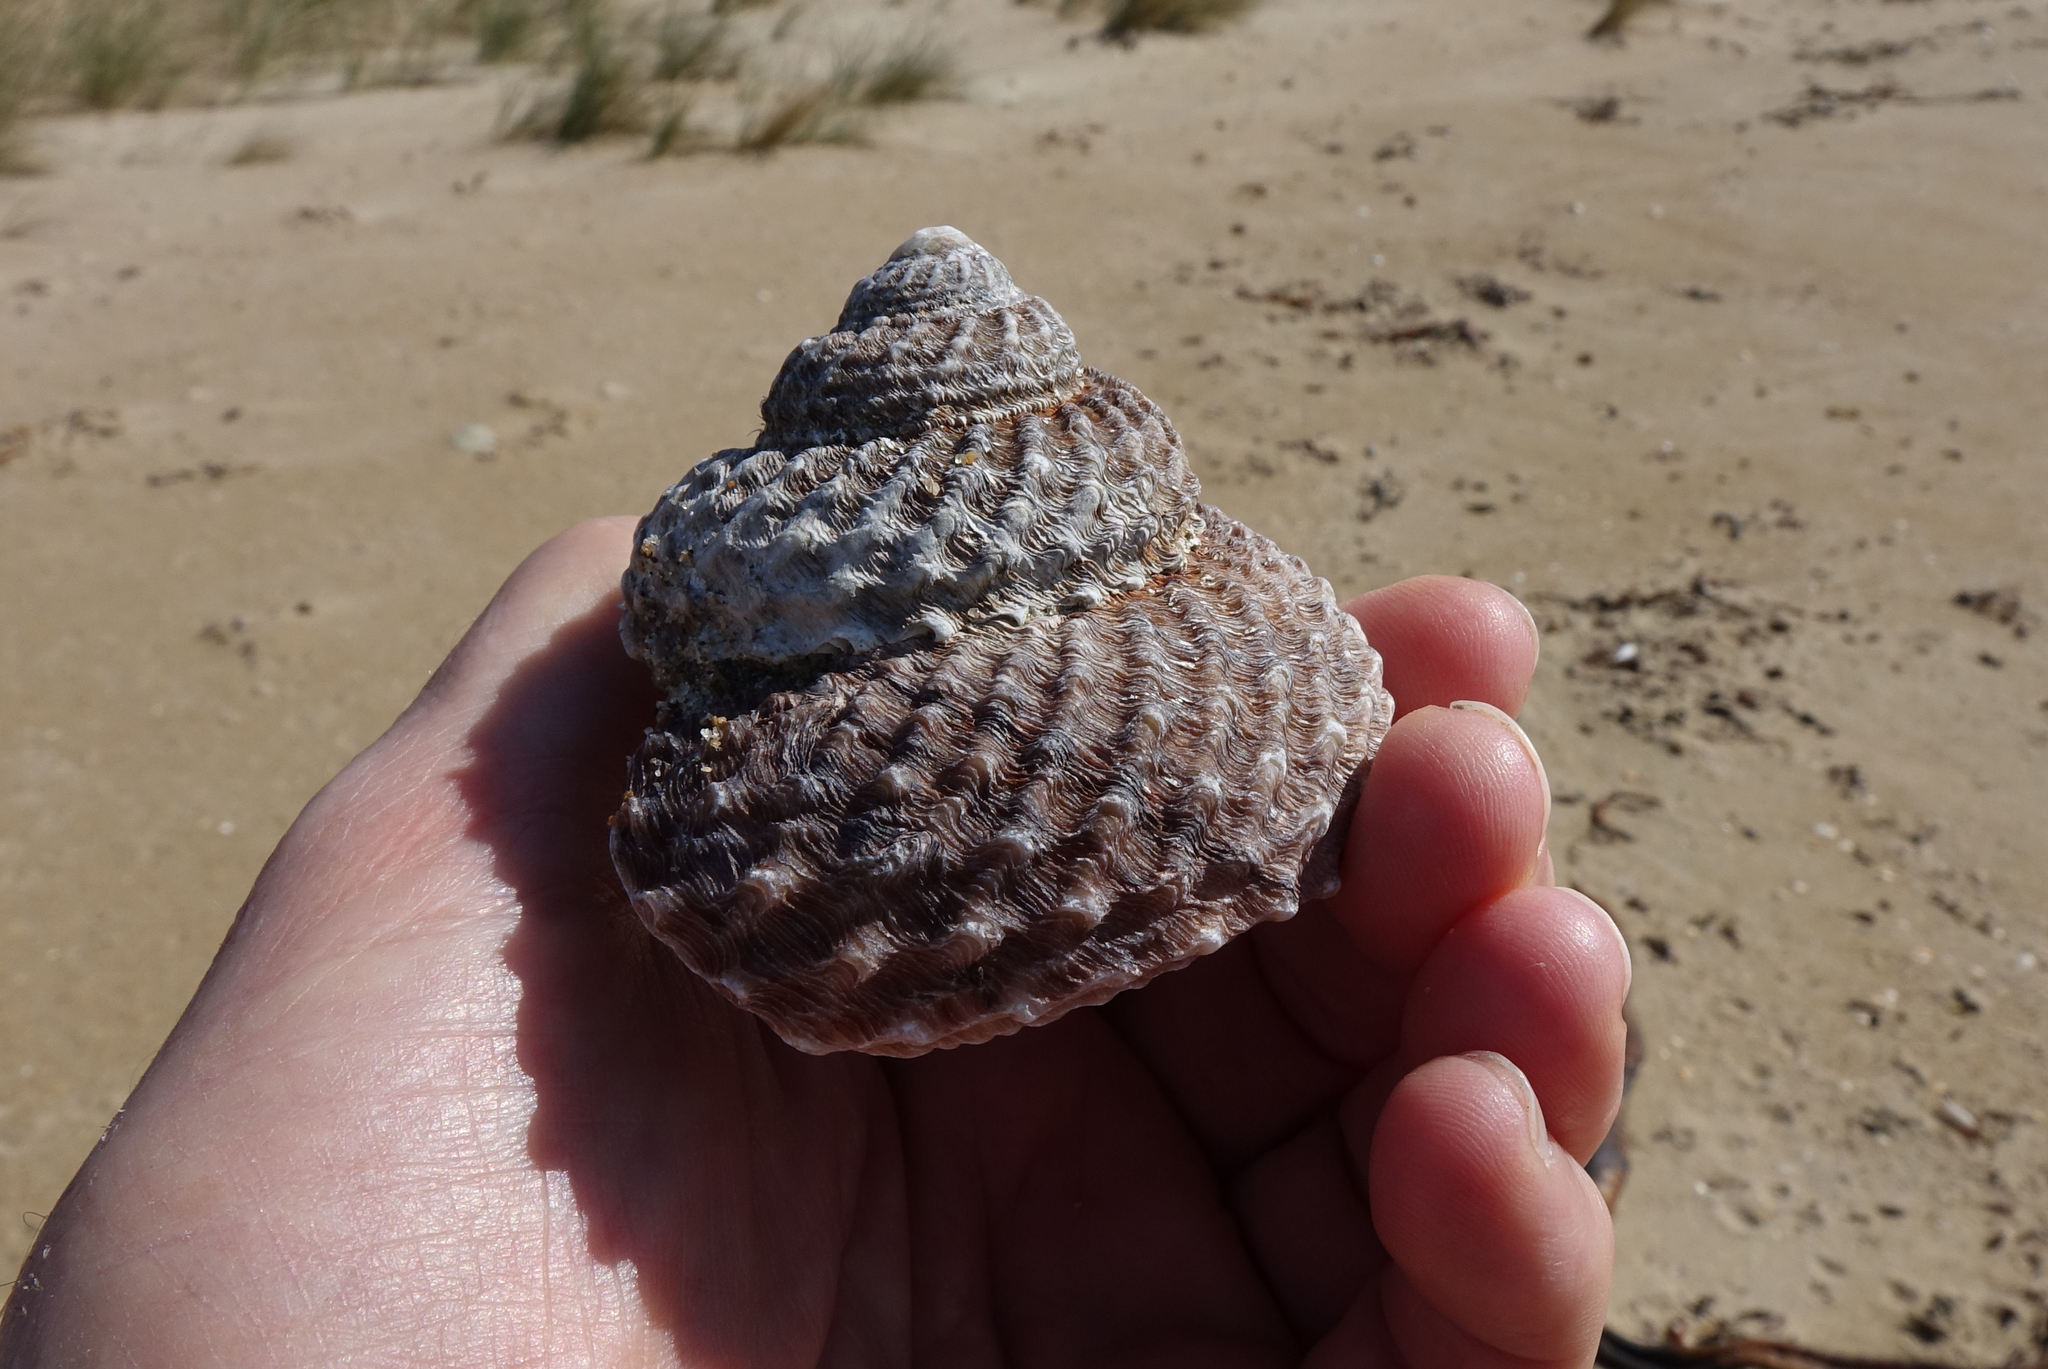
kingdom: Animalia
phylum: Mollusca
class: Gastropoda
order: Trochida
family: Turbinidae
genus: Cookia
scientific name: Cookia sulcata
